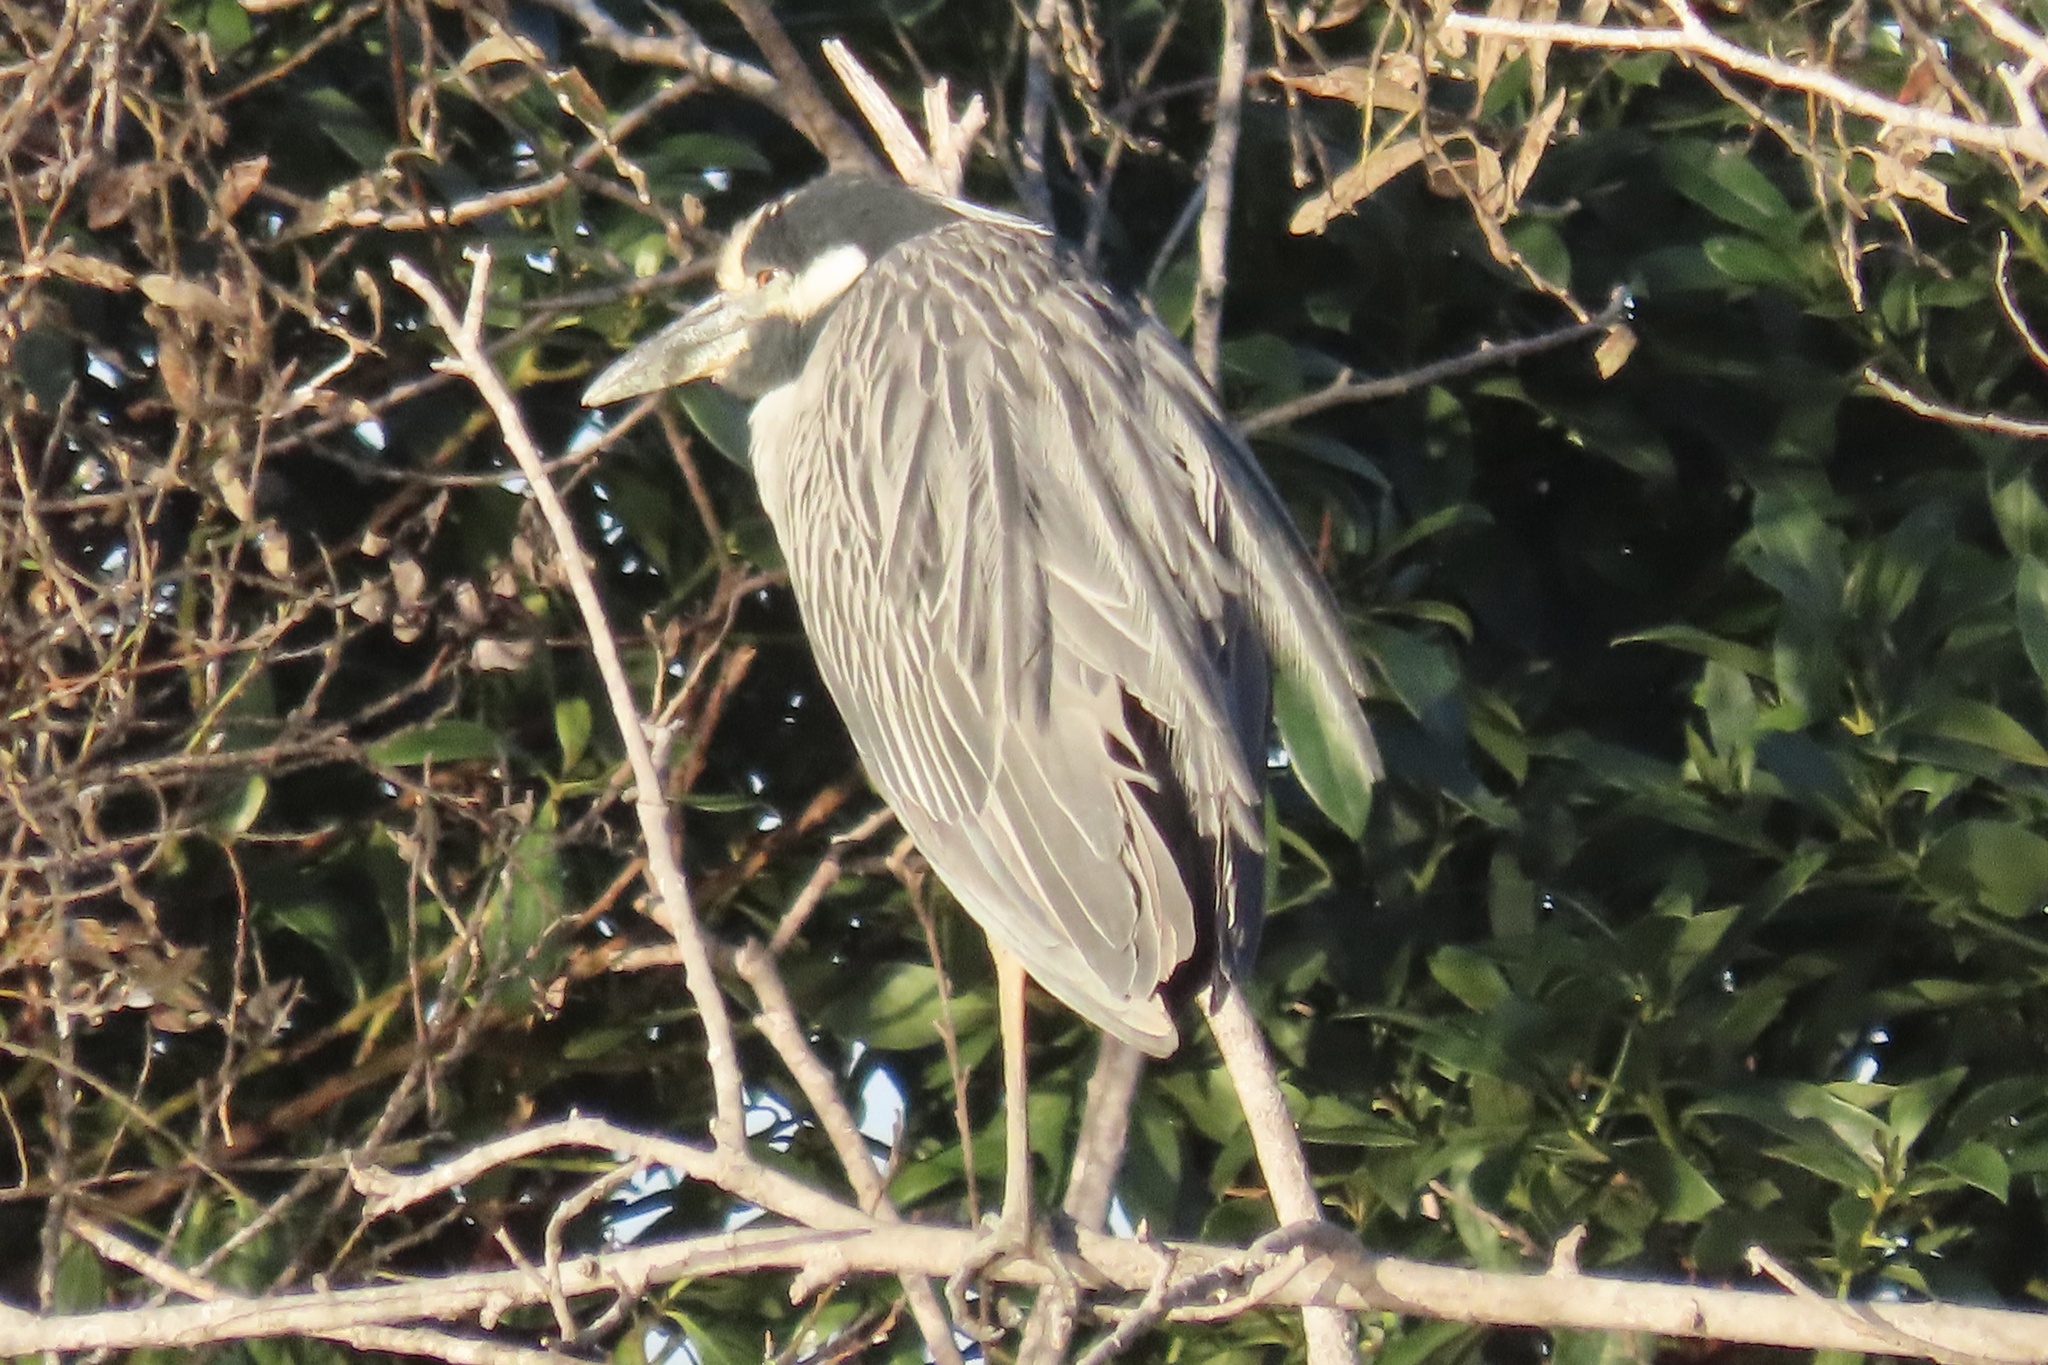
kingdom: Animalia
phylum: Chordata
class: Aves
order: Pelecaniformes
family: Ardeidae
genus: Nyctanassa
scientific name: Nyctanassa violacea
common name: Yellow-crowned night heron
